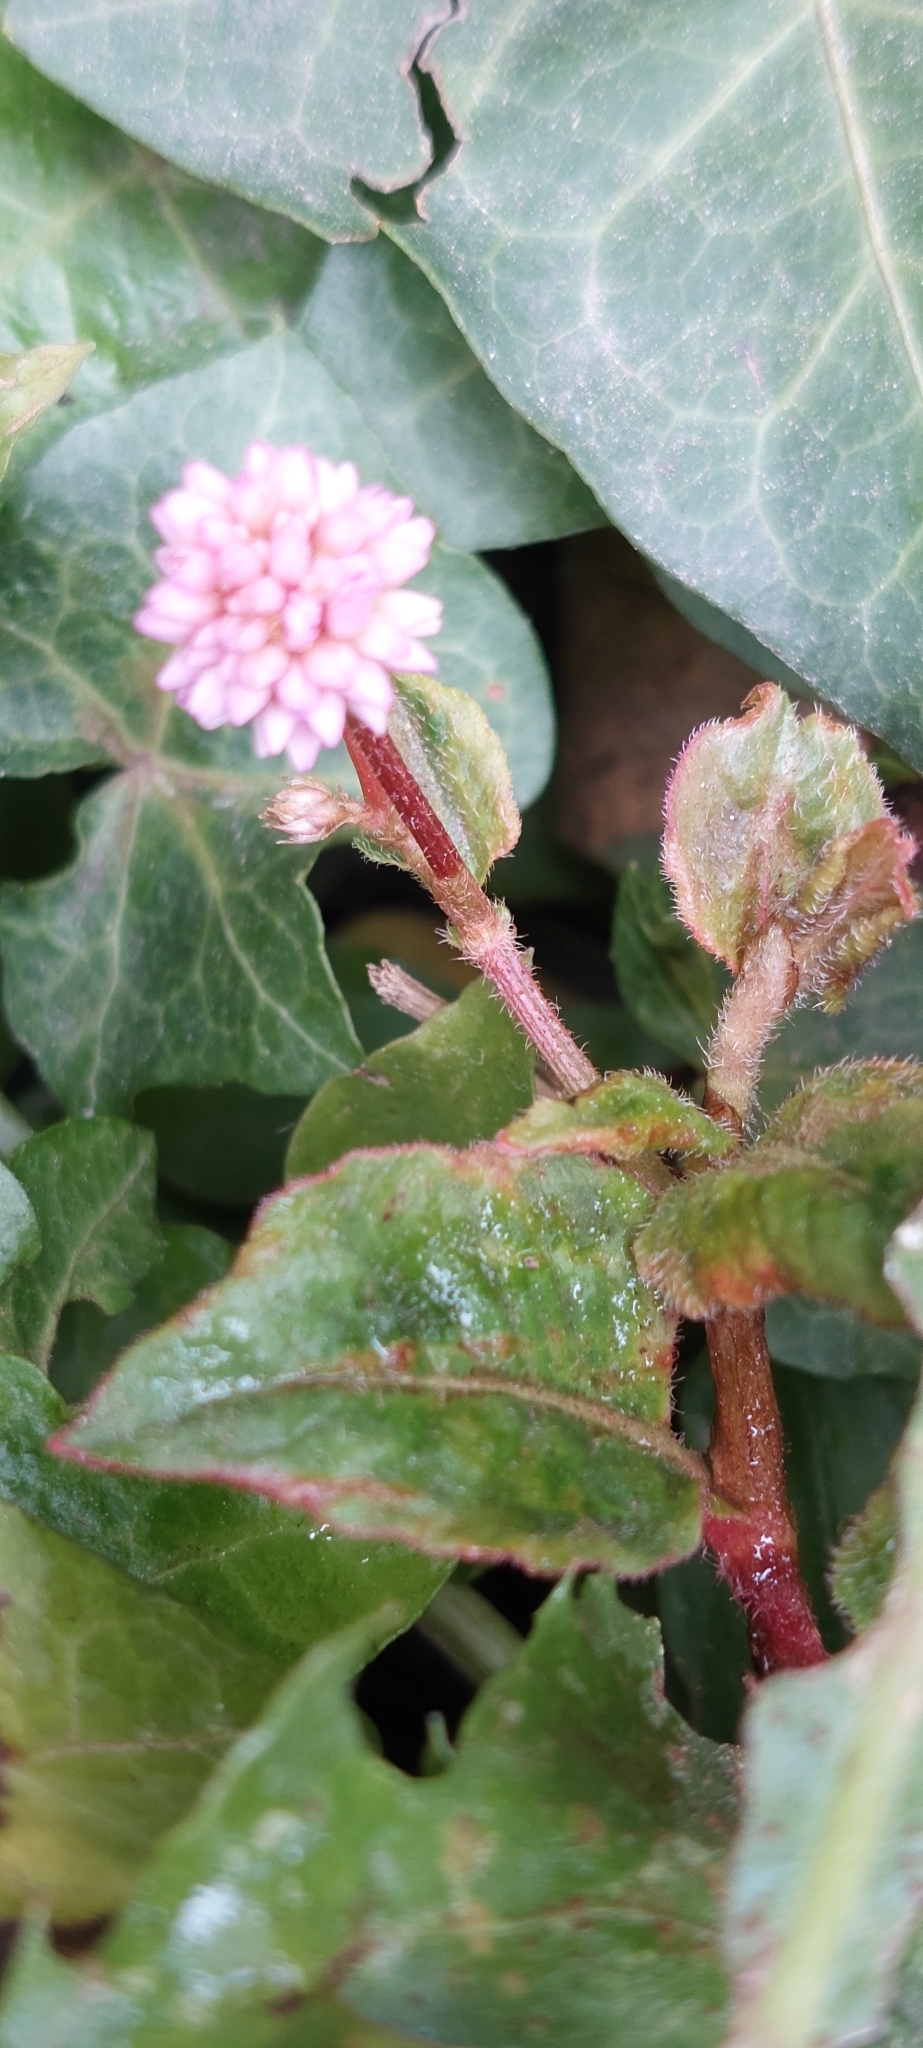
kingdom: Plantae
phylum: Tracheophyta
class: Magnoliopsida
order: Caryophyllales
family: Polygonaceae
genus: Persicaria
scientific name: Persicaria capitata
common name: Pinkhead smartweed
